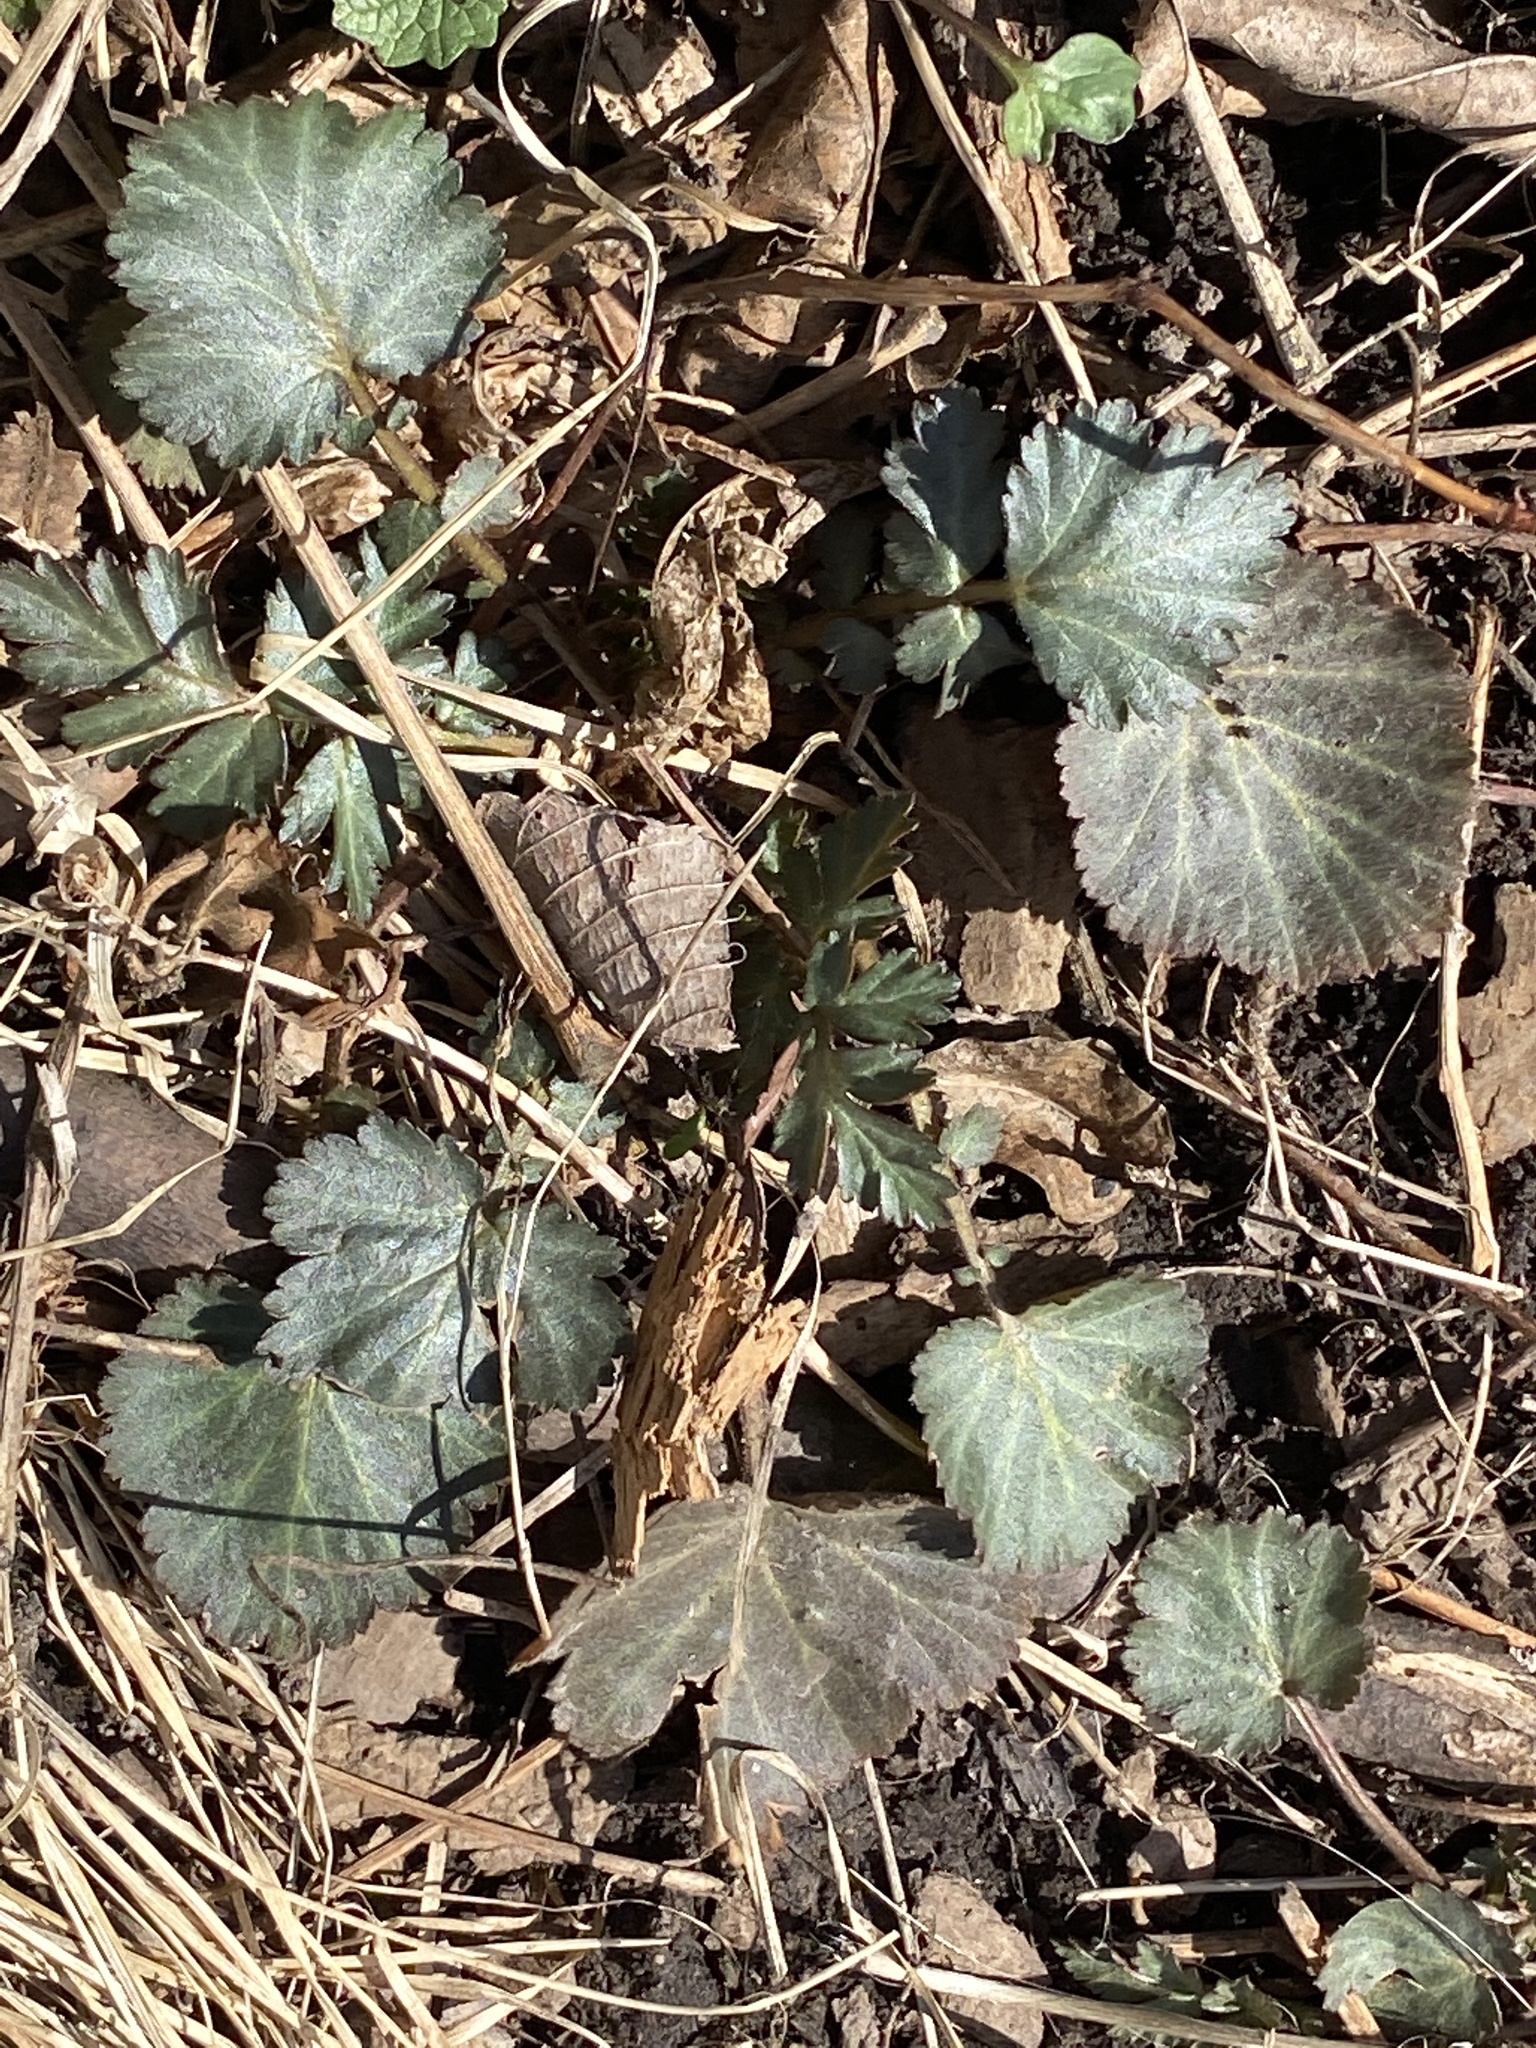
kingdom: Plantae
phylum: Tracheophyta
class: Magnoliopsida
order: Rosales
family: Rosaceae
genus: Geum
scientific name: Geum canadense
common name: White avens
